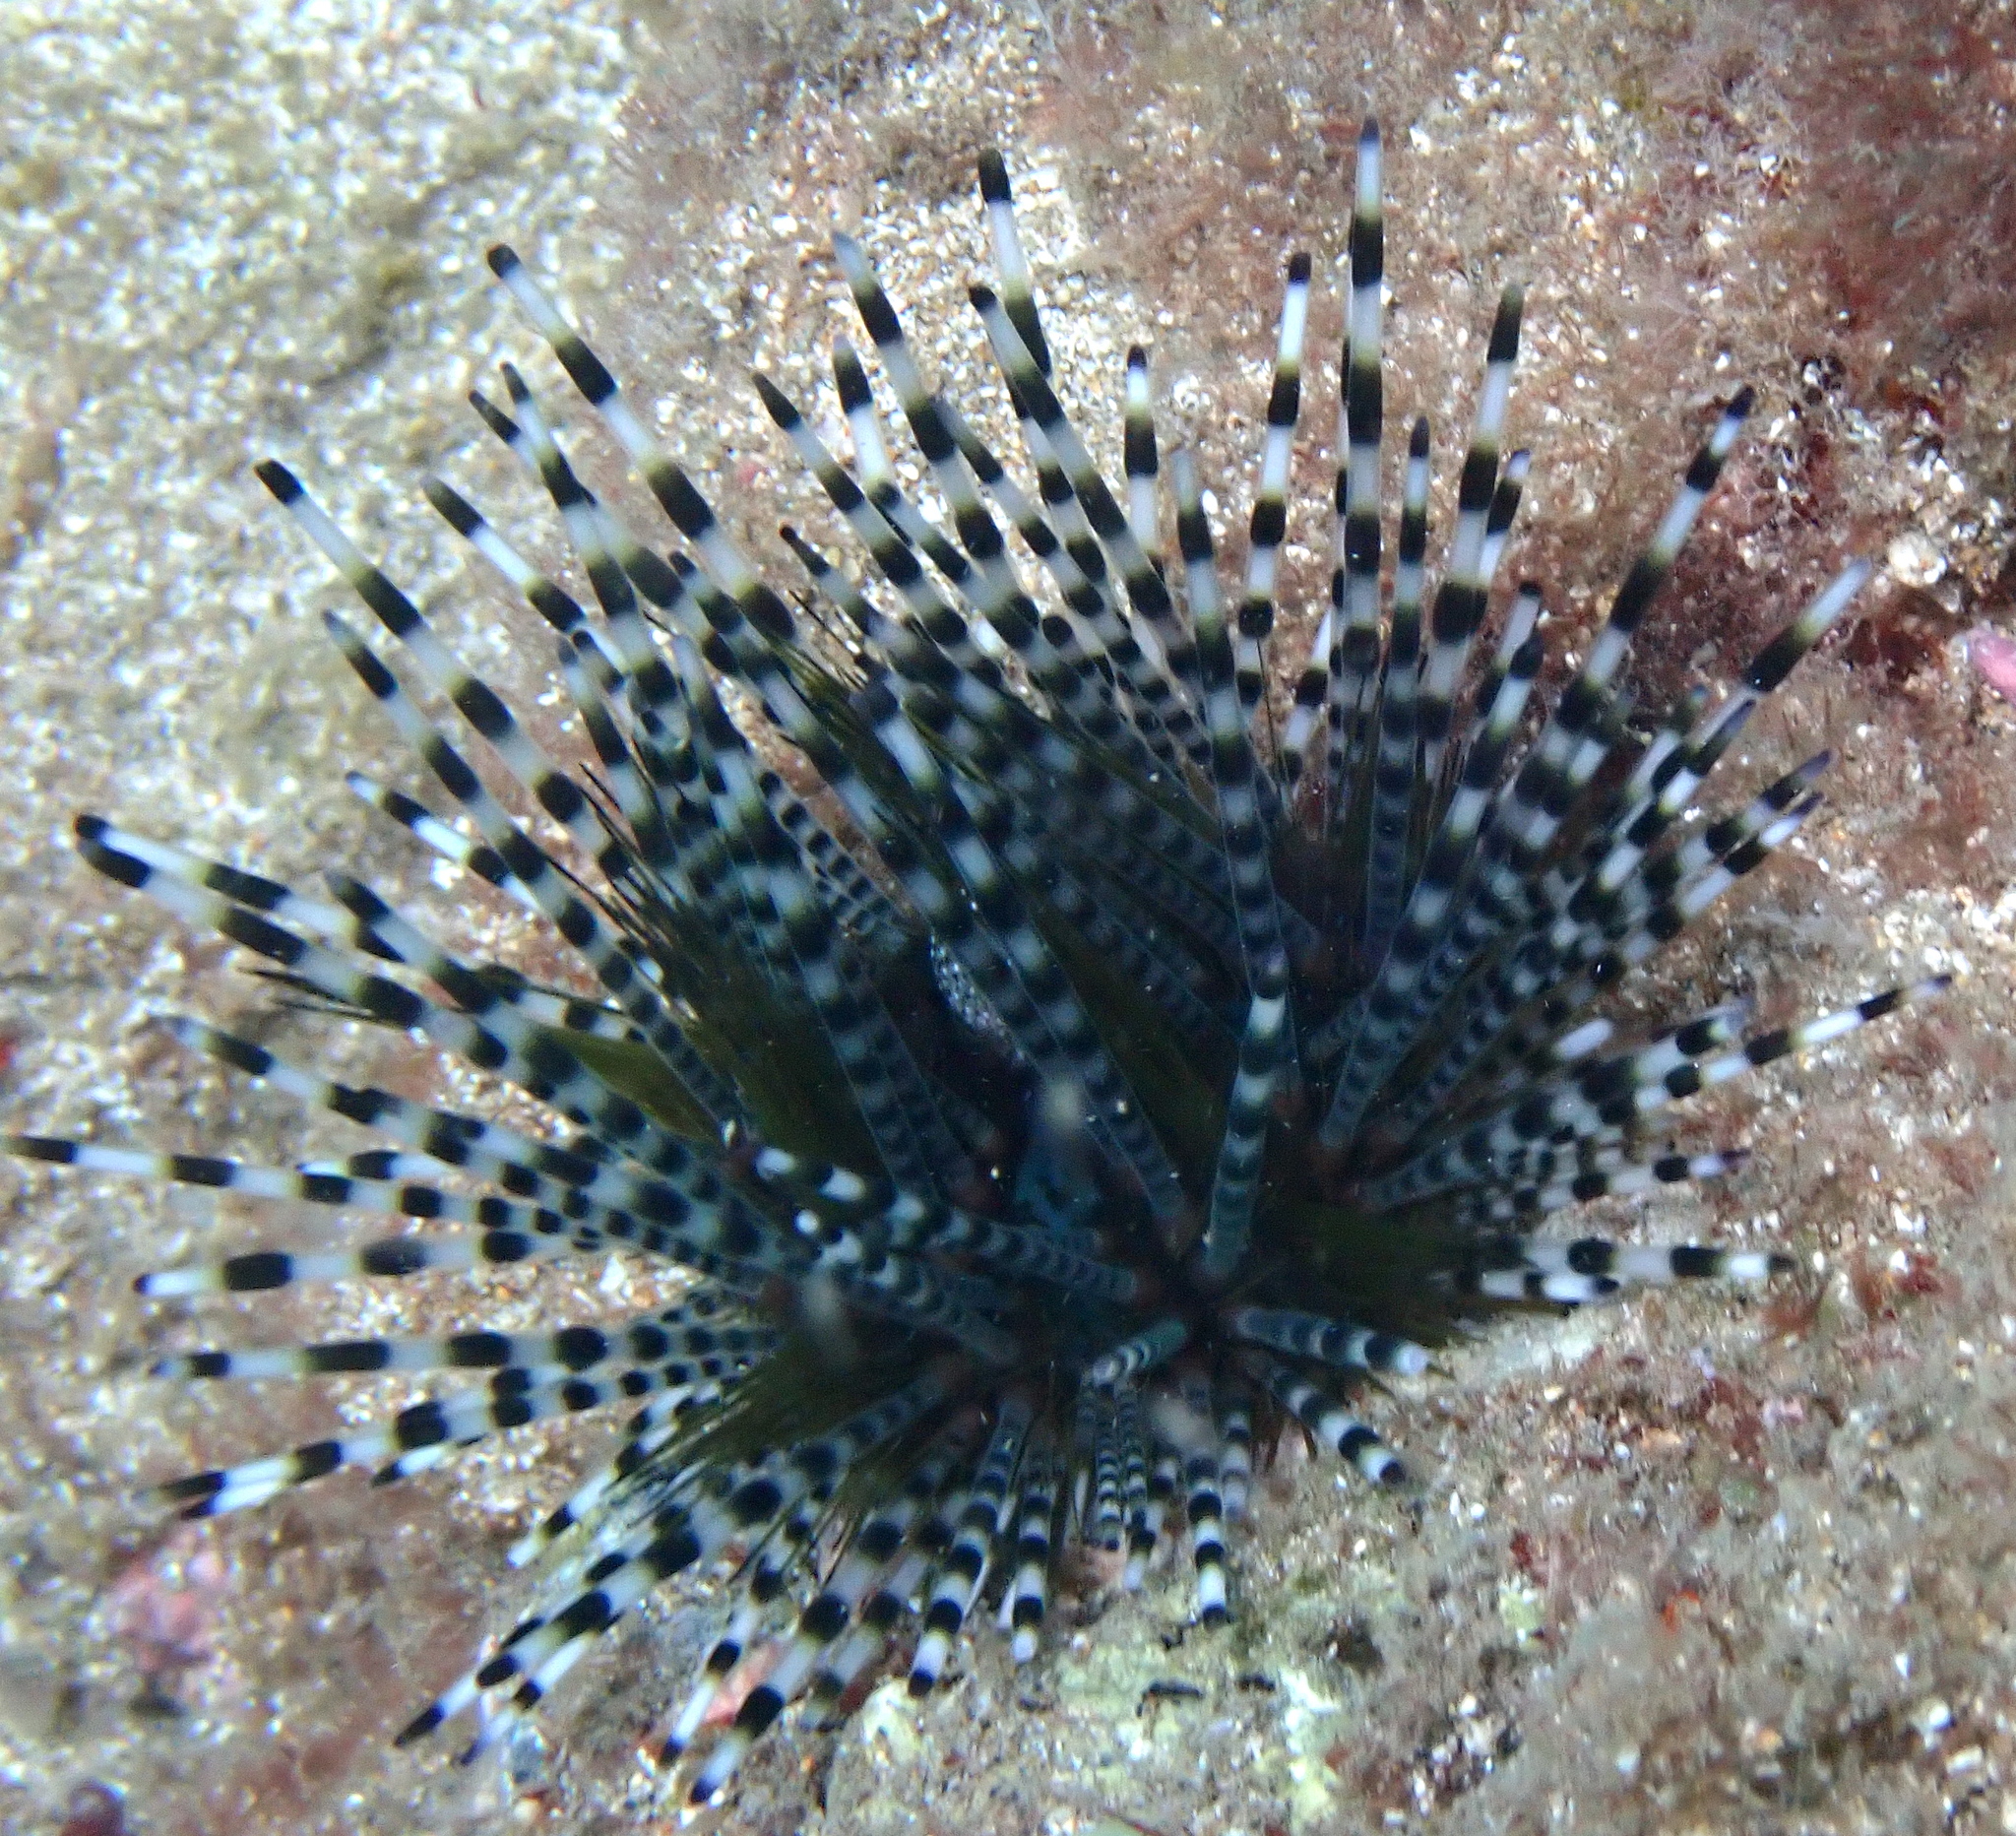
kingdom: Animalia
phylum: Echinodermata
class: Echinoidea
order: Diadematoida
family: Diadematidae
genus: Echinothrix
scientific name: Echinothrix calamaris
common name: Banded sea urchin
